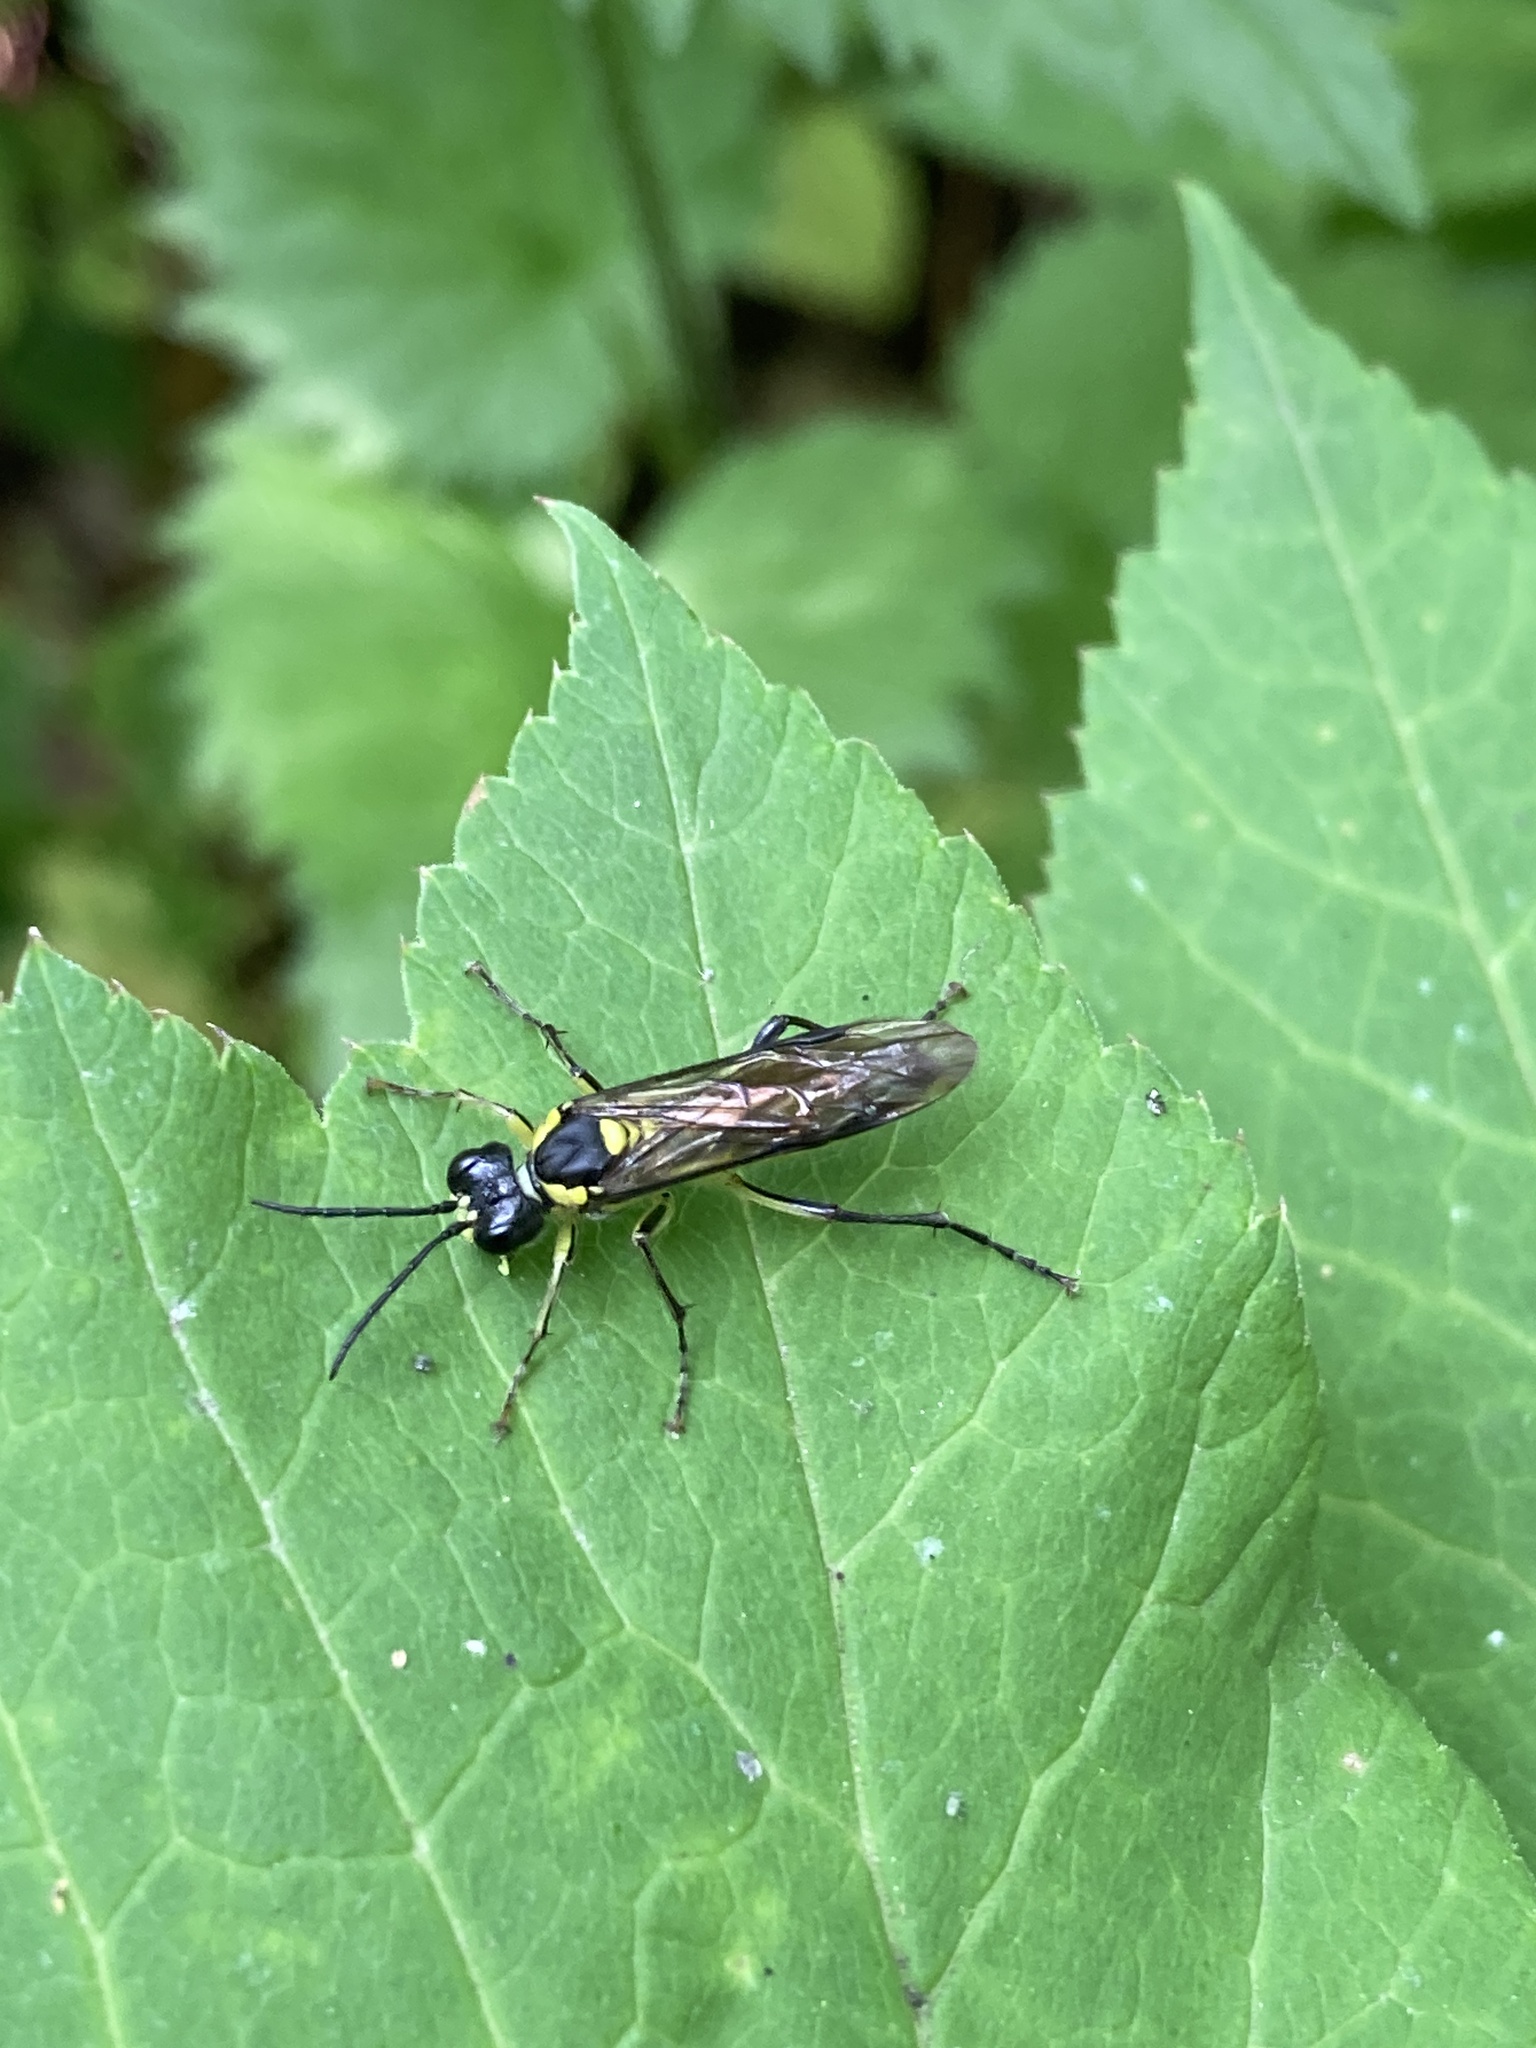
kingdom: Animalia
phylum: Arthropoda
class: Insecta
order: Hymenoptera
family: Tenthredinidae
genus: Tenthredo
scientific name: Tenthredo mesomela
